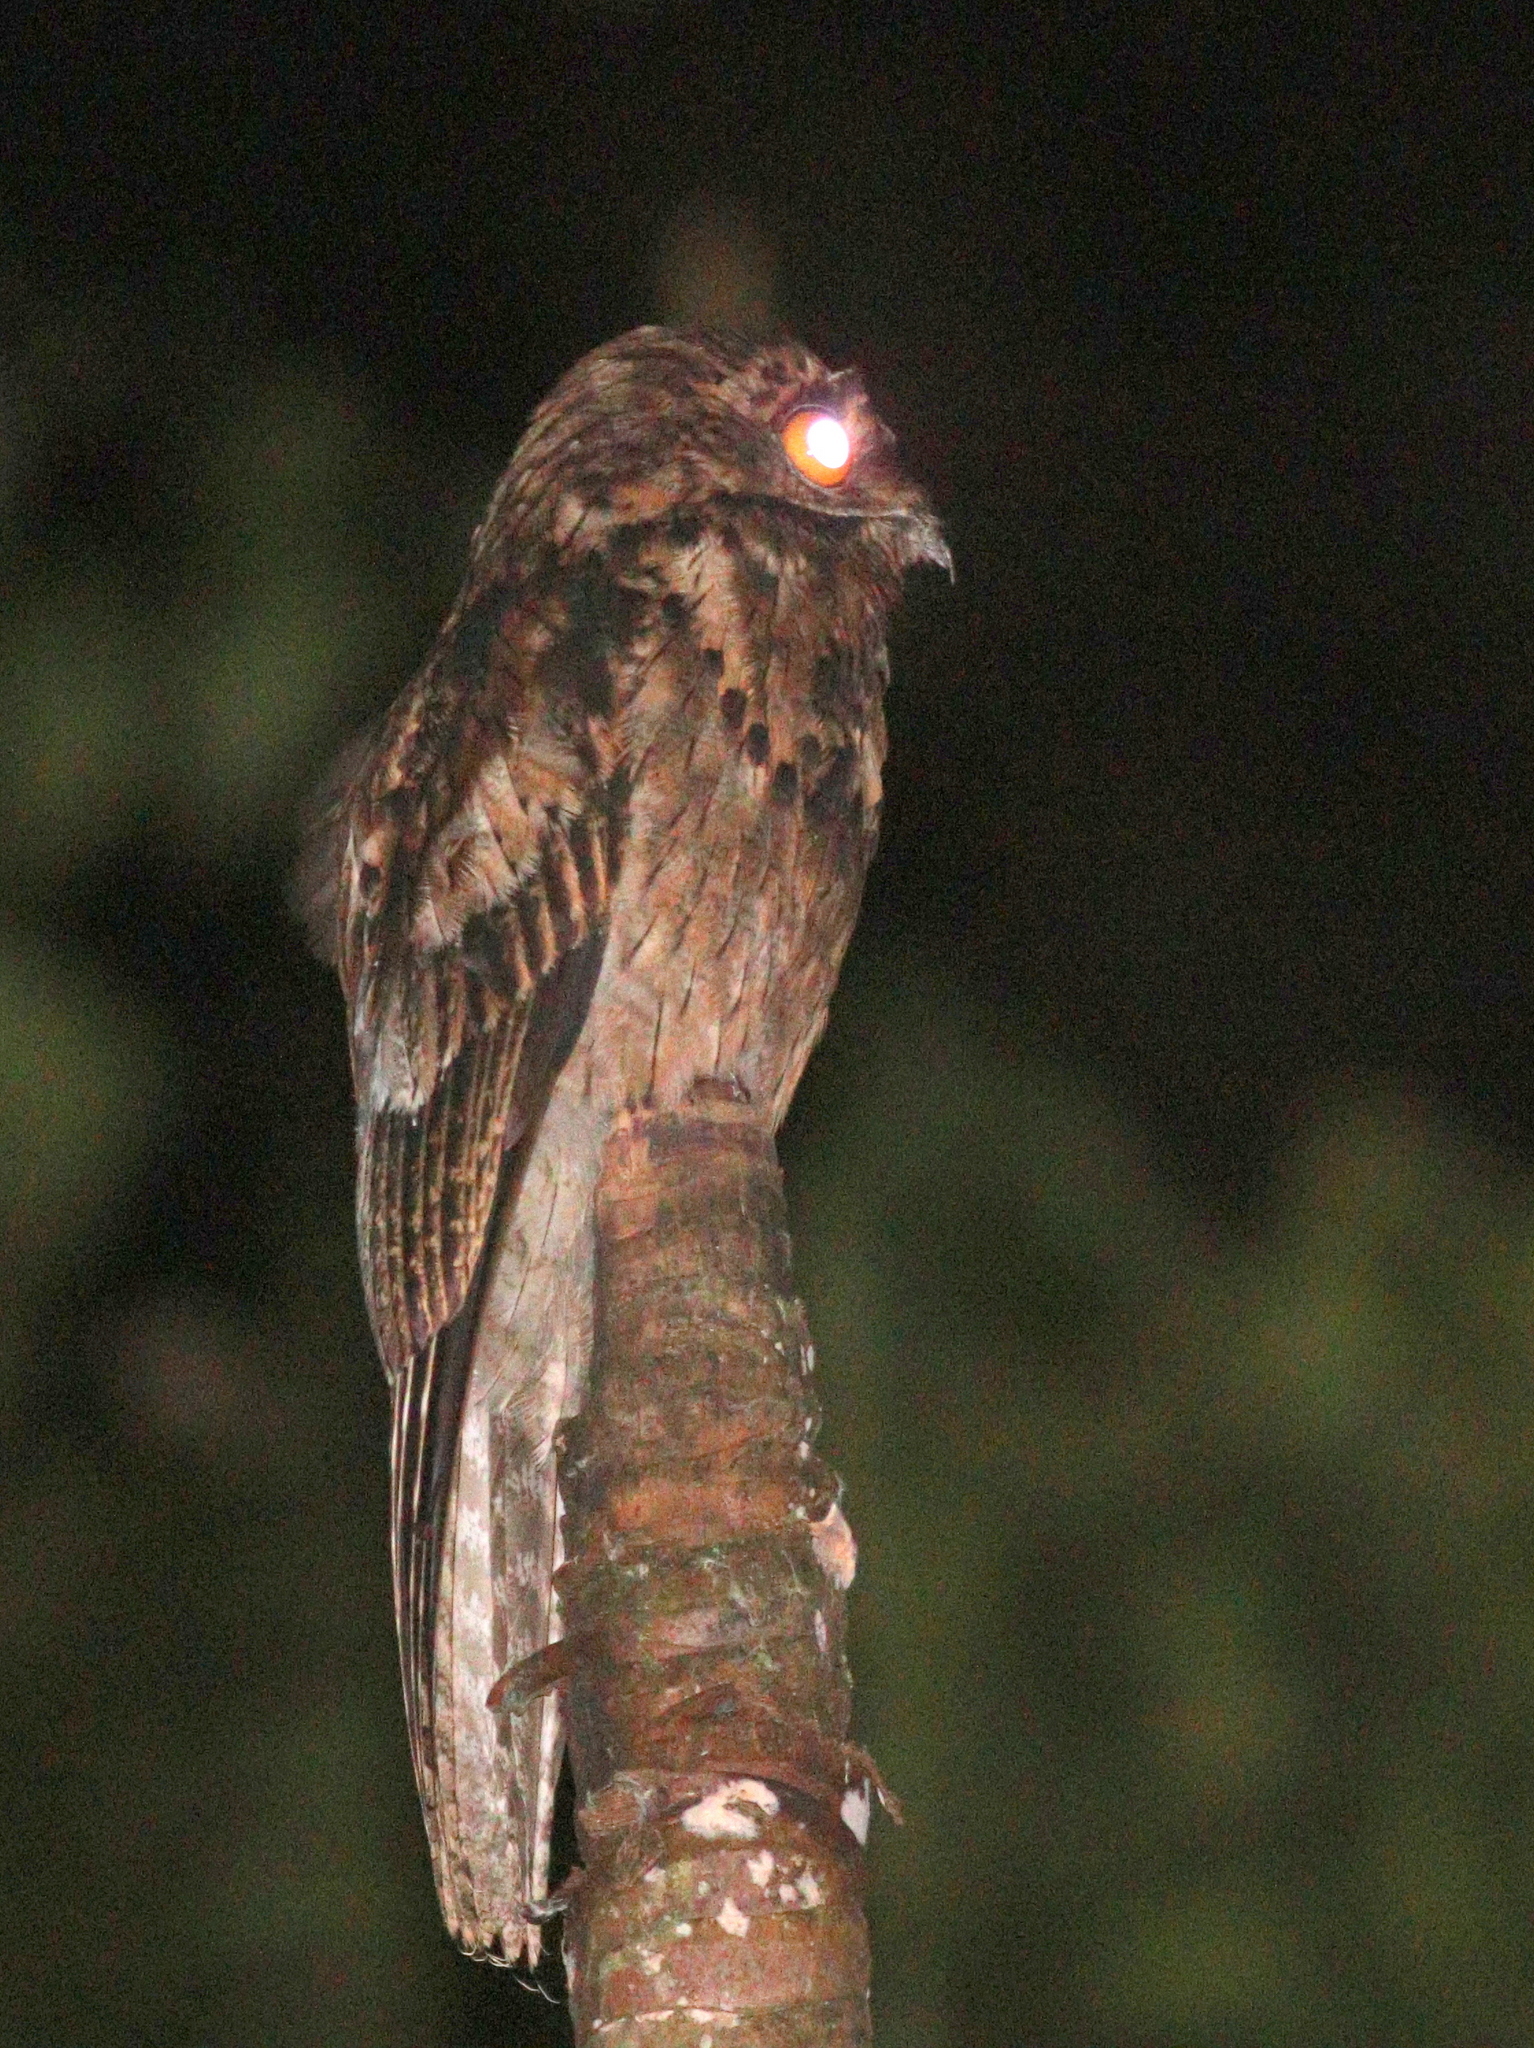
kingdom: Animalia
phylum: Chordata
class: Aves
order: Nyctibiiformes
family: Nyctibiidae
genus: Nyctibius
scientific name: Nyctibius griseus
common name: Common potoo
